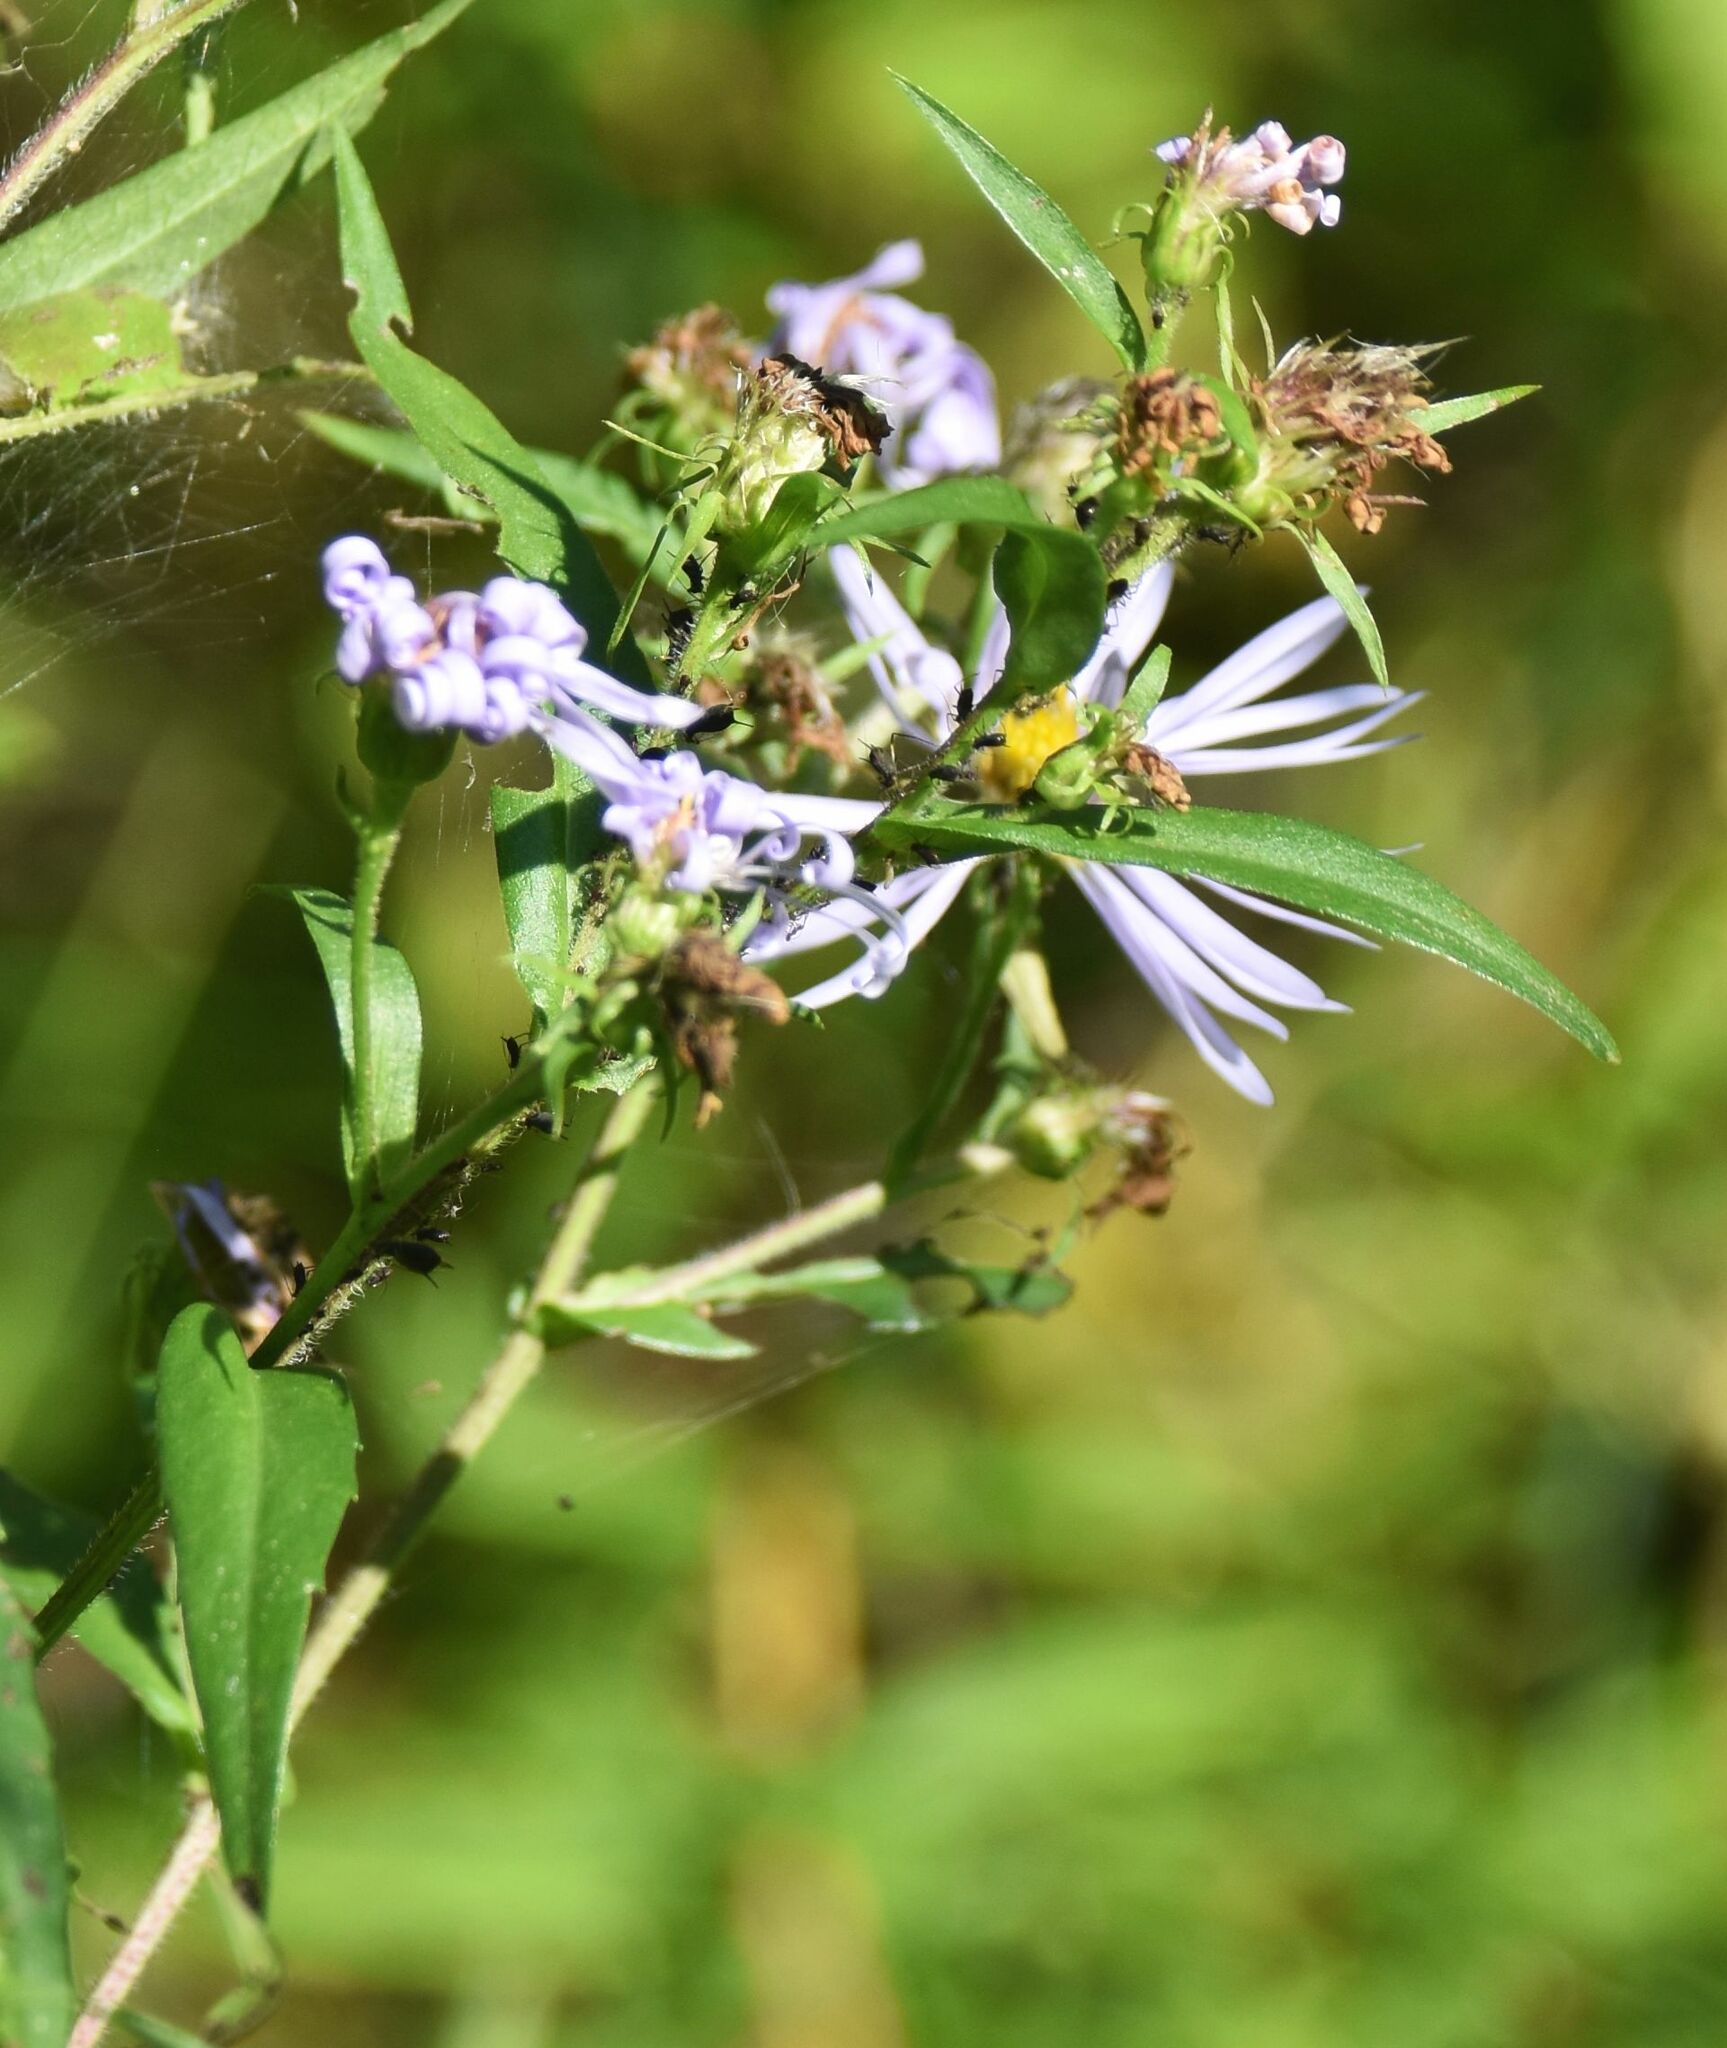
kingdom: Plantae
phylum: Tracheophyta
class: Magnoliopsida
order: Asterales
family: Asteraceae
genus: Symphyotrichum
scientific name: Symphyotrichum puniceum
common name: Bog aster
